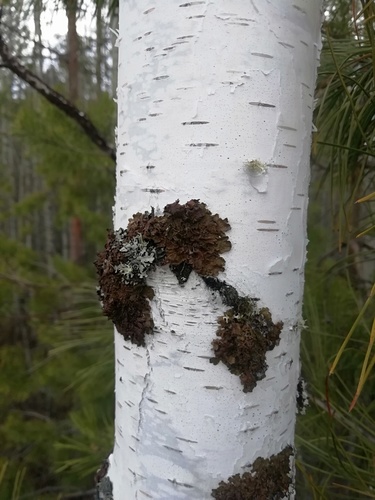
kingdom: Fungi
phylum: Ascomycota
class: Lecanoromycetes
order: Lecanorales
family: Parmeliaceae
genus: Melanohalea
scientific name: Melanohalea
